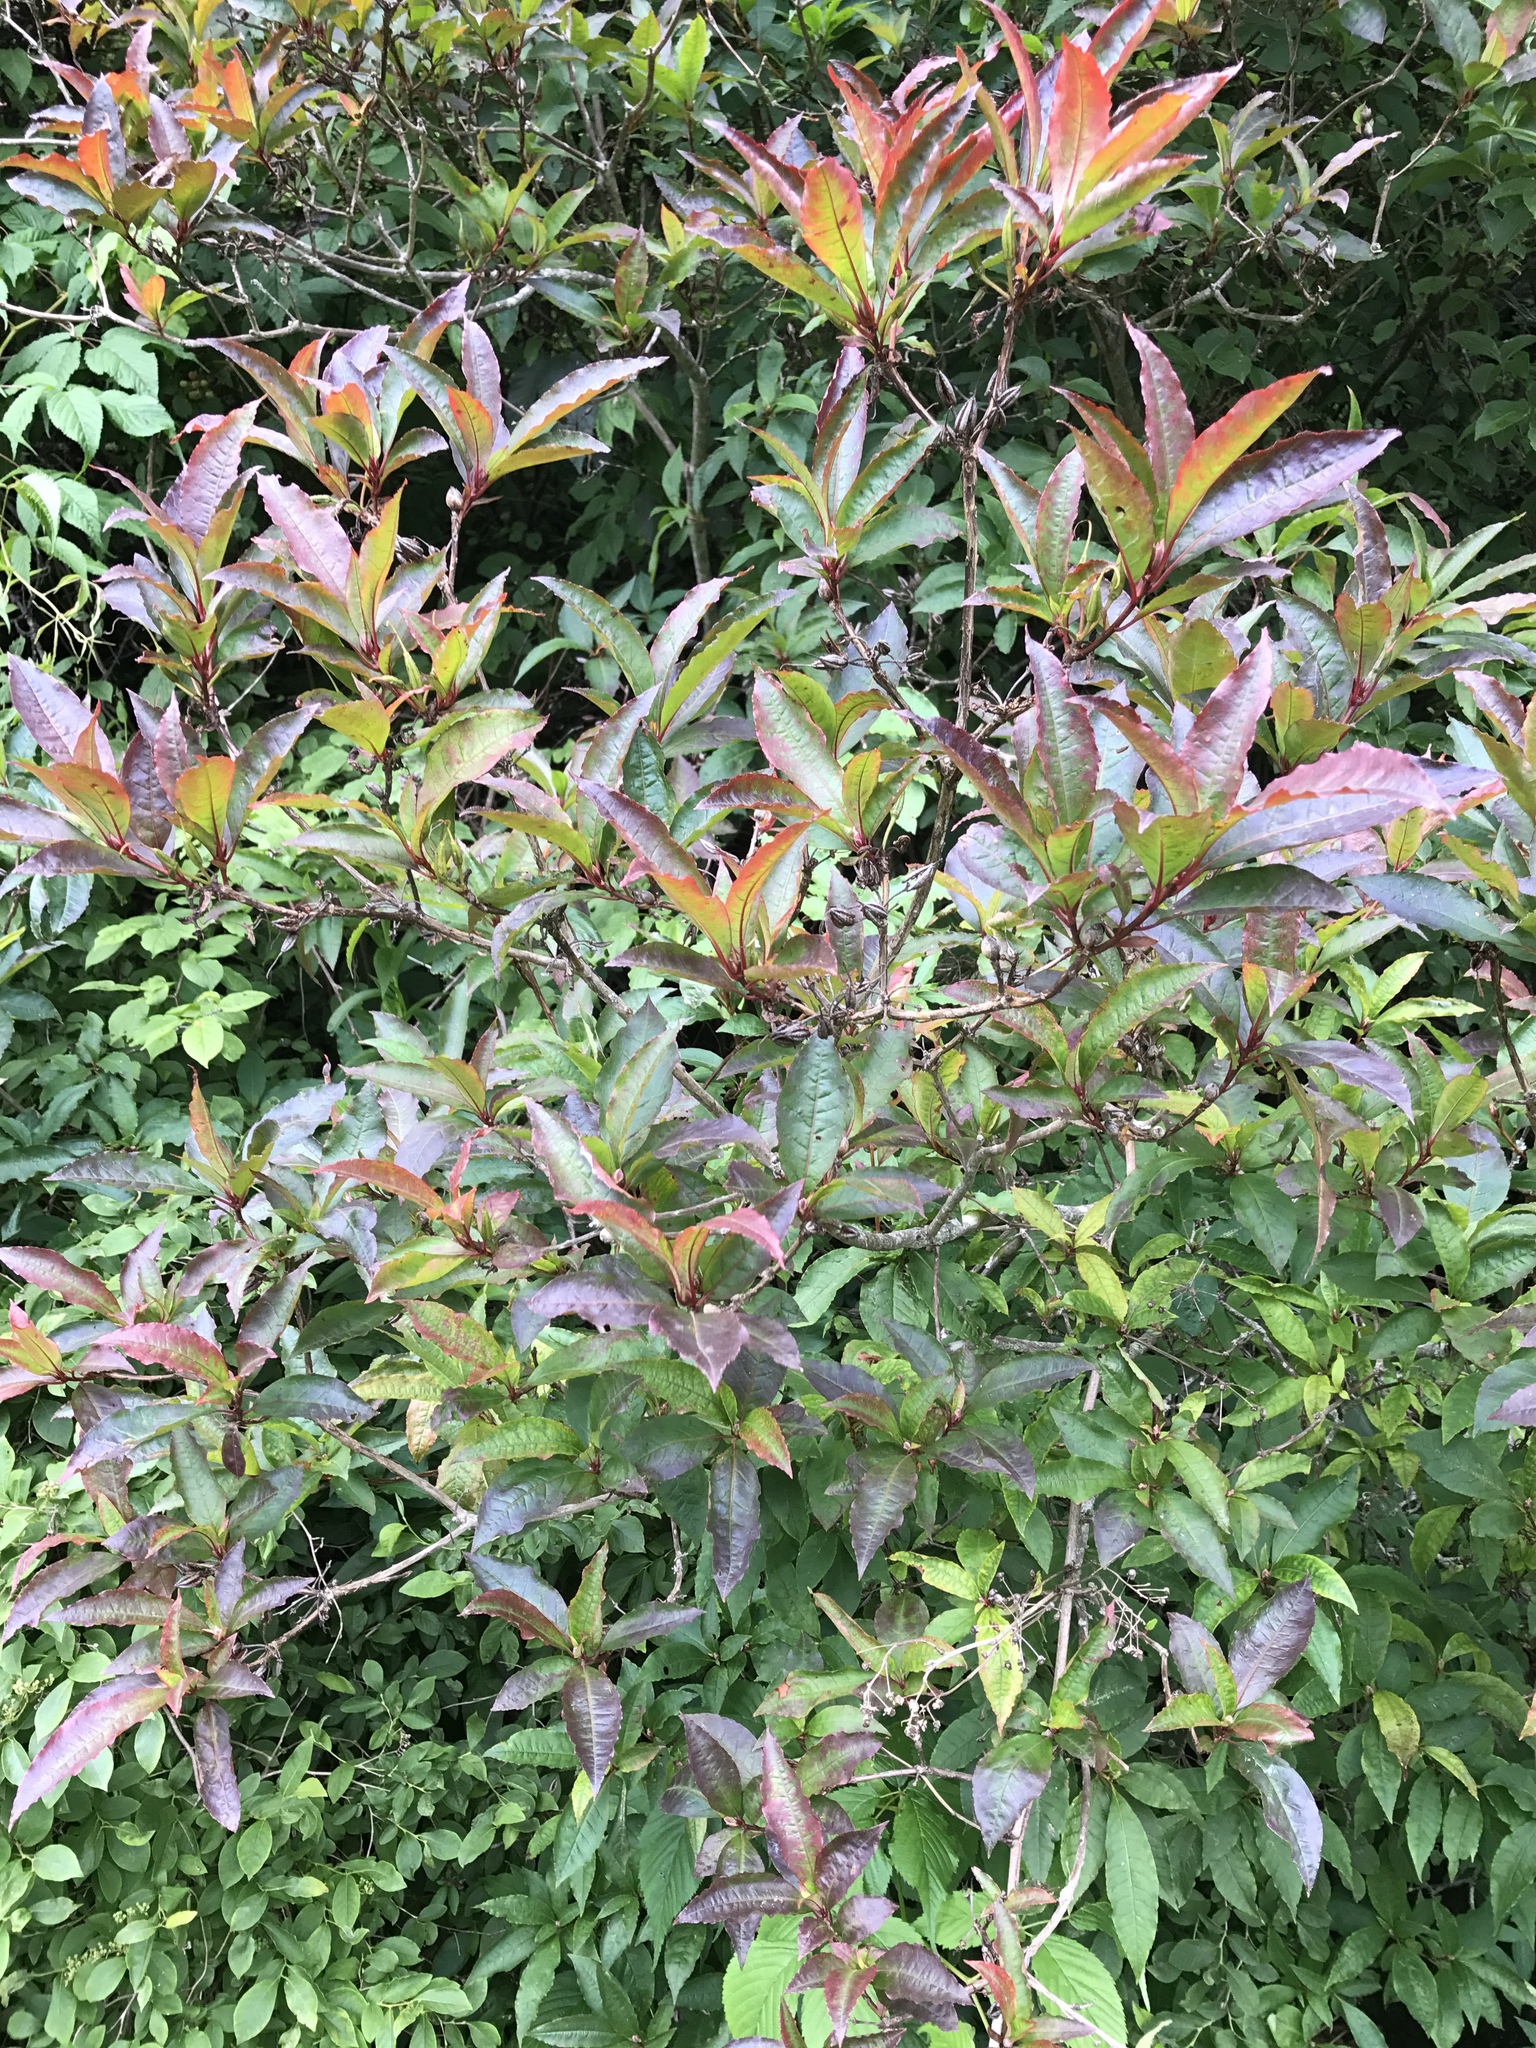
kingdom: Plantae
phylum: Tracheophyta
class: Magnoliopsida
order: Ericales
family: Ericaceae
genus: Rhododendron
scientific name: Rhododendron vaseyi
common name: Pink-shell azalea
